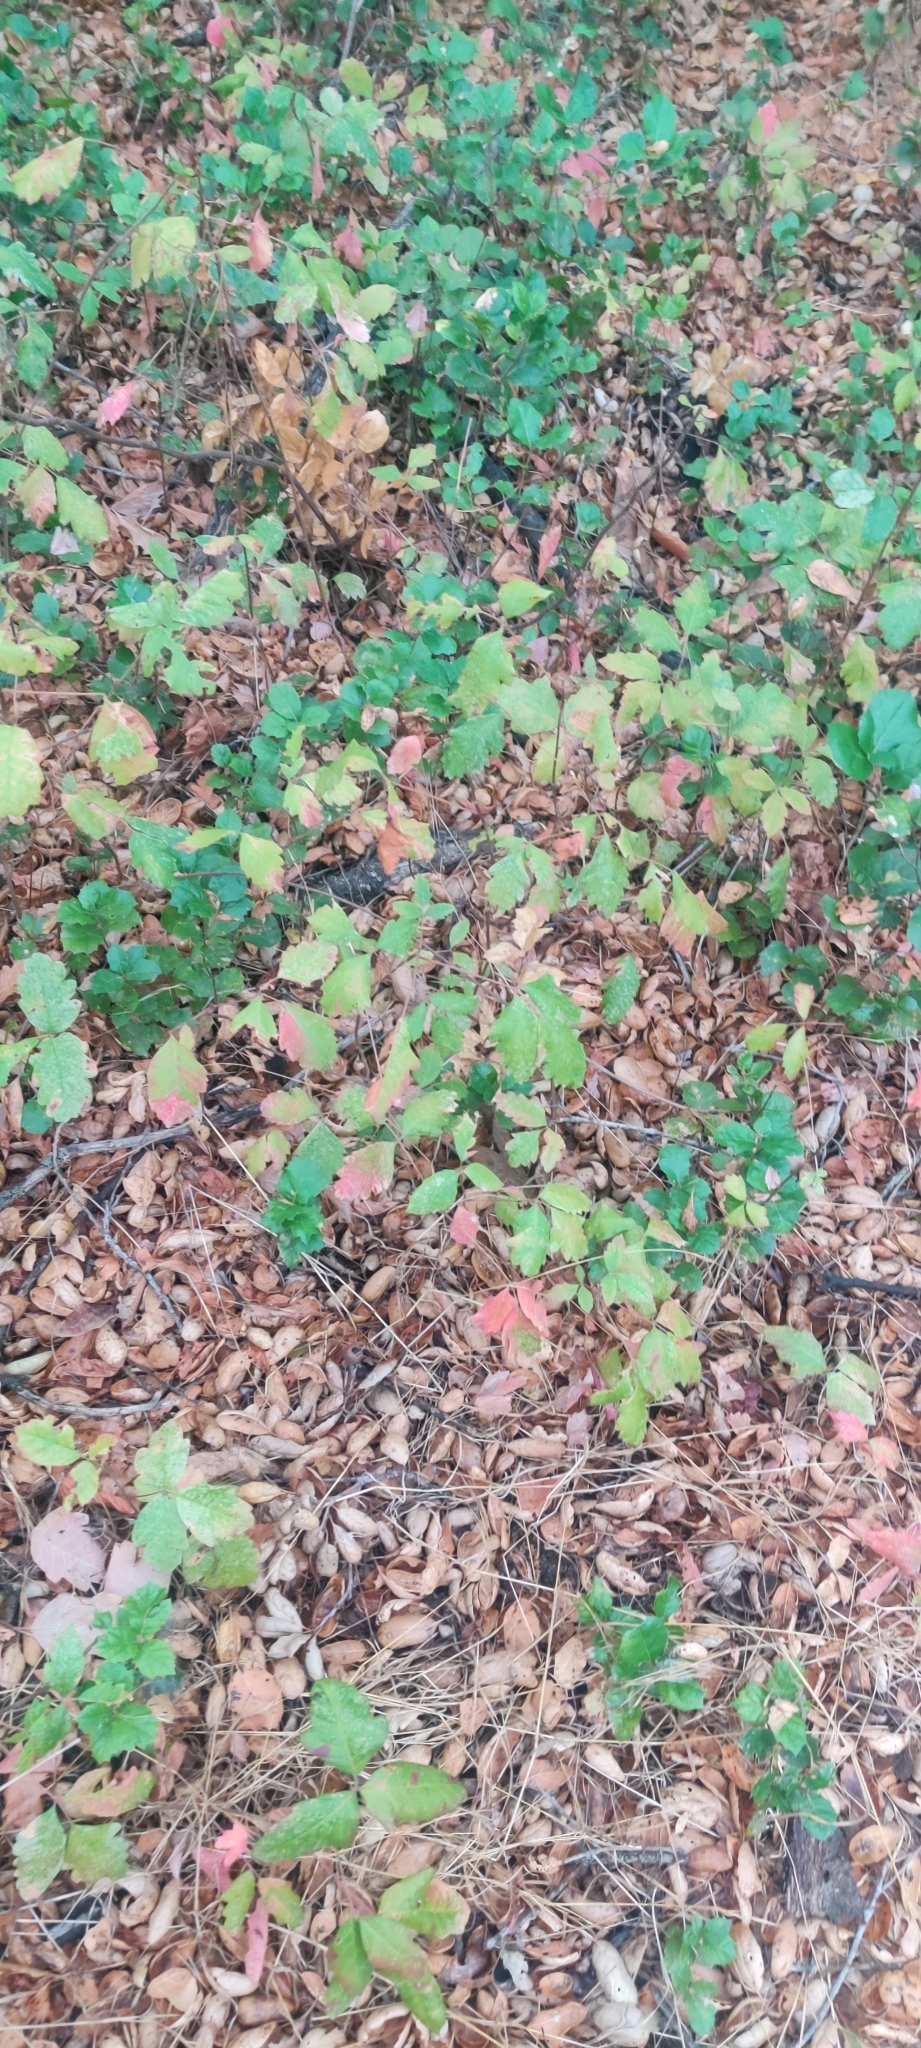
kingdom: Plantae
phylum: Tracheophyta
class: Magnoliopsida
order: Sapindales
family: Anacardiaceae
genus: Toxicodendron
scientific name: Toxicodendron diversilobum
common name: Pacific poison-oak
